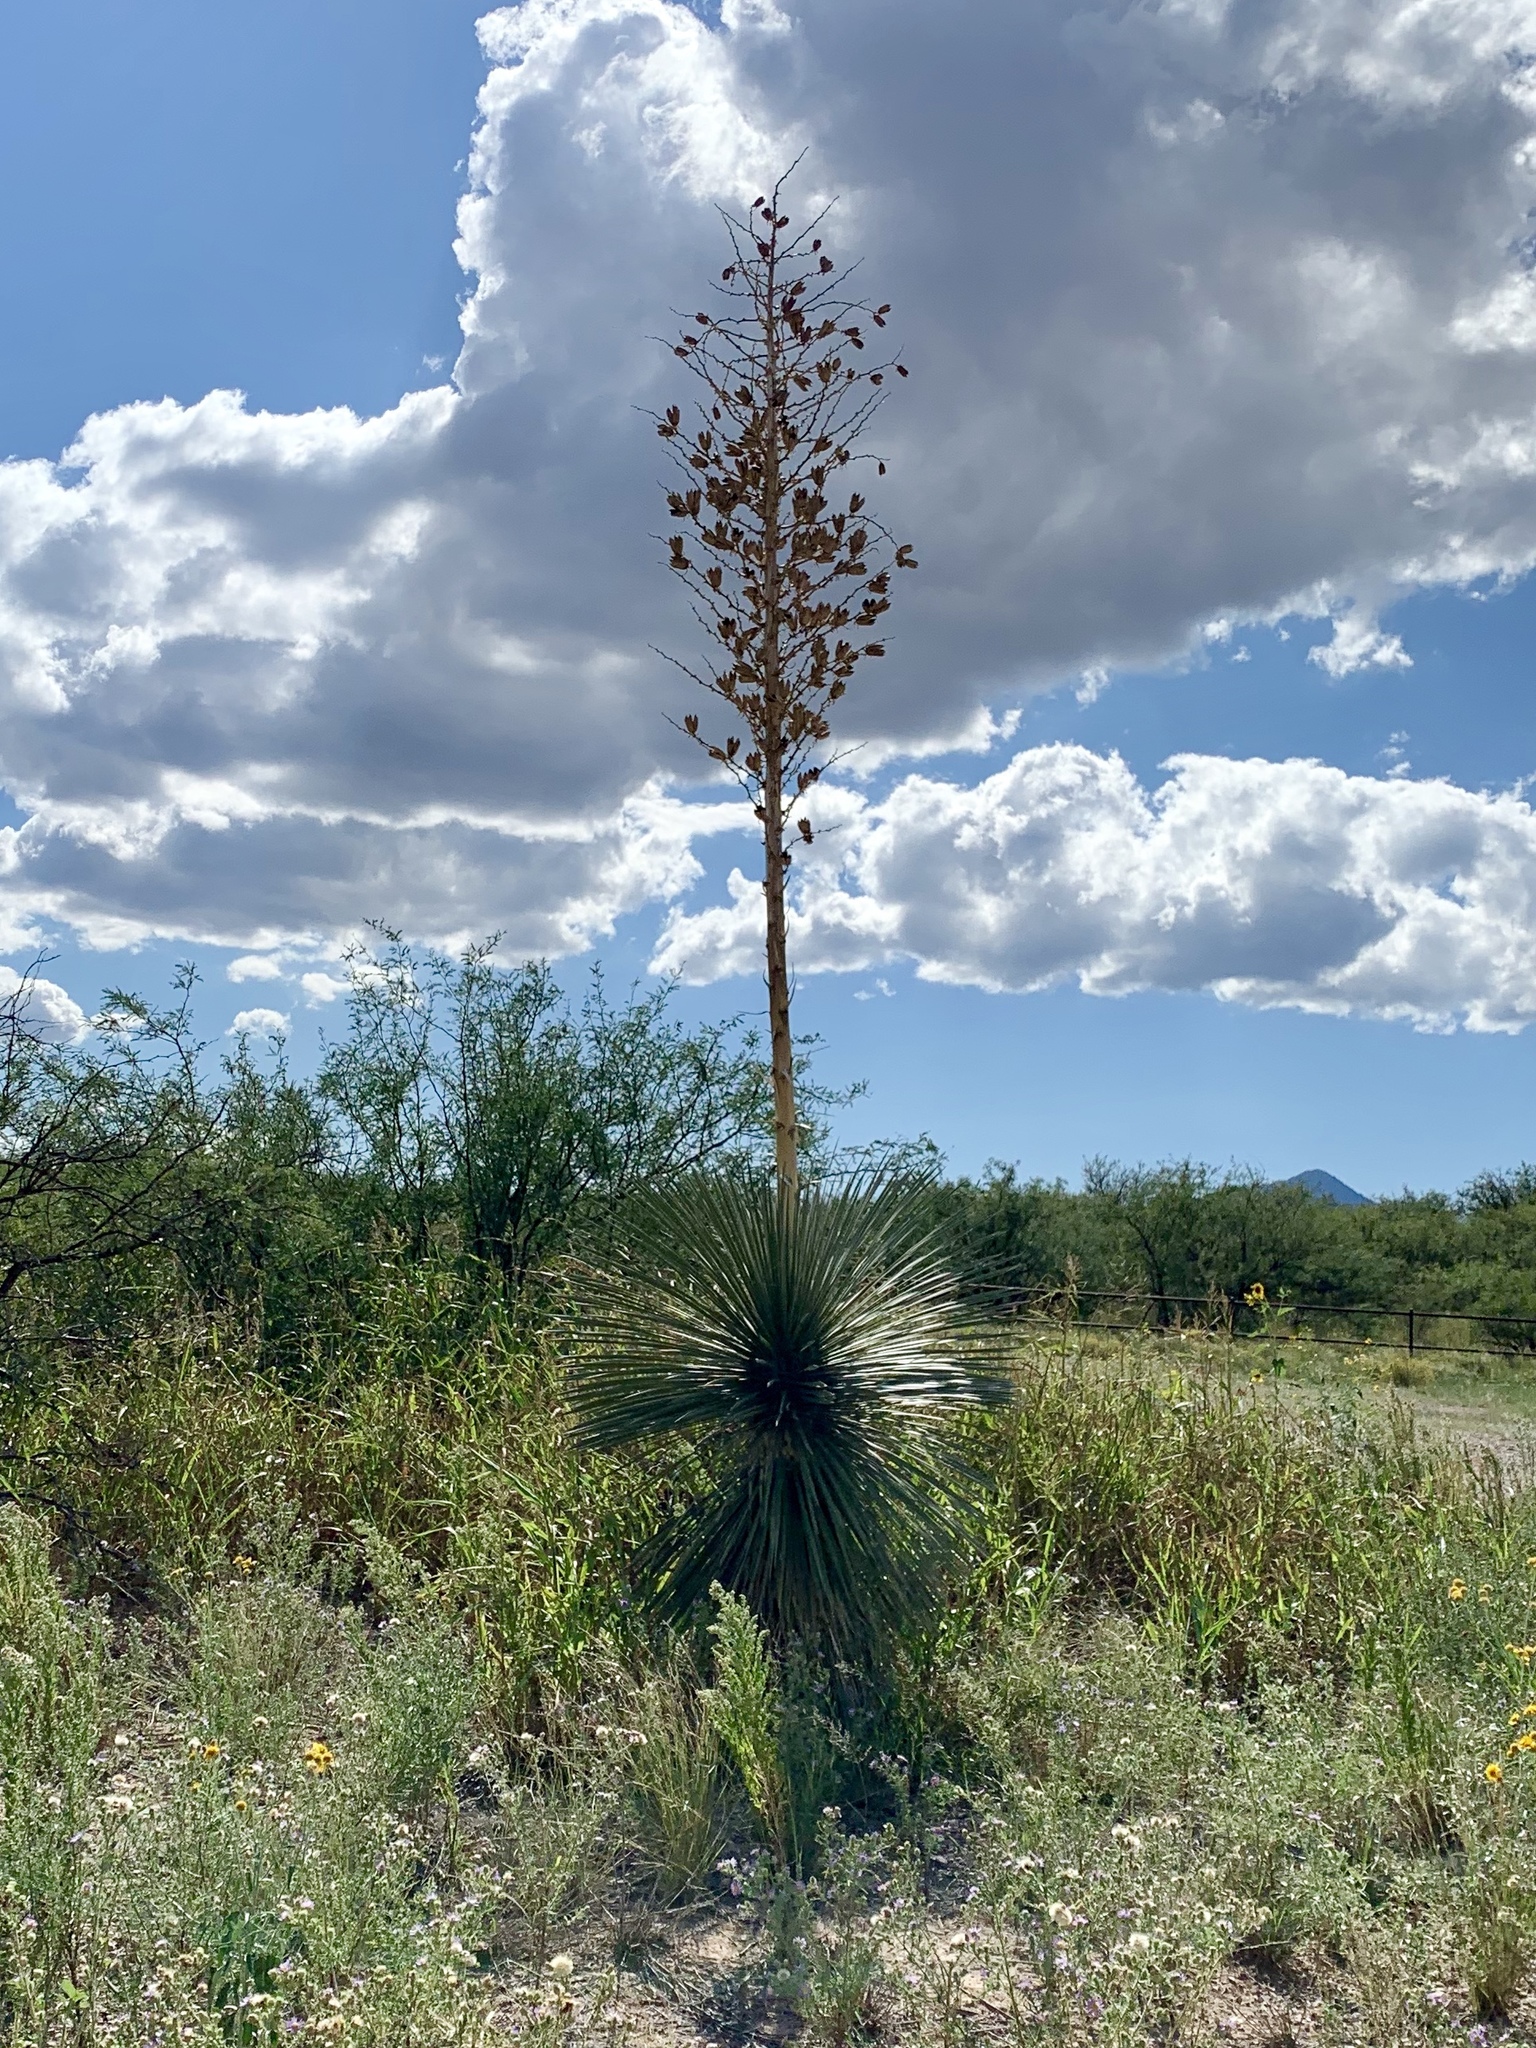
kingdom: Plantae
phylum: Tracheophyta
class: Liliopsida
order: Asparagales
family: Asparagaceae
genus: Yucca
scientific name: Yucca elata
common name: Palmella
